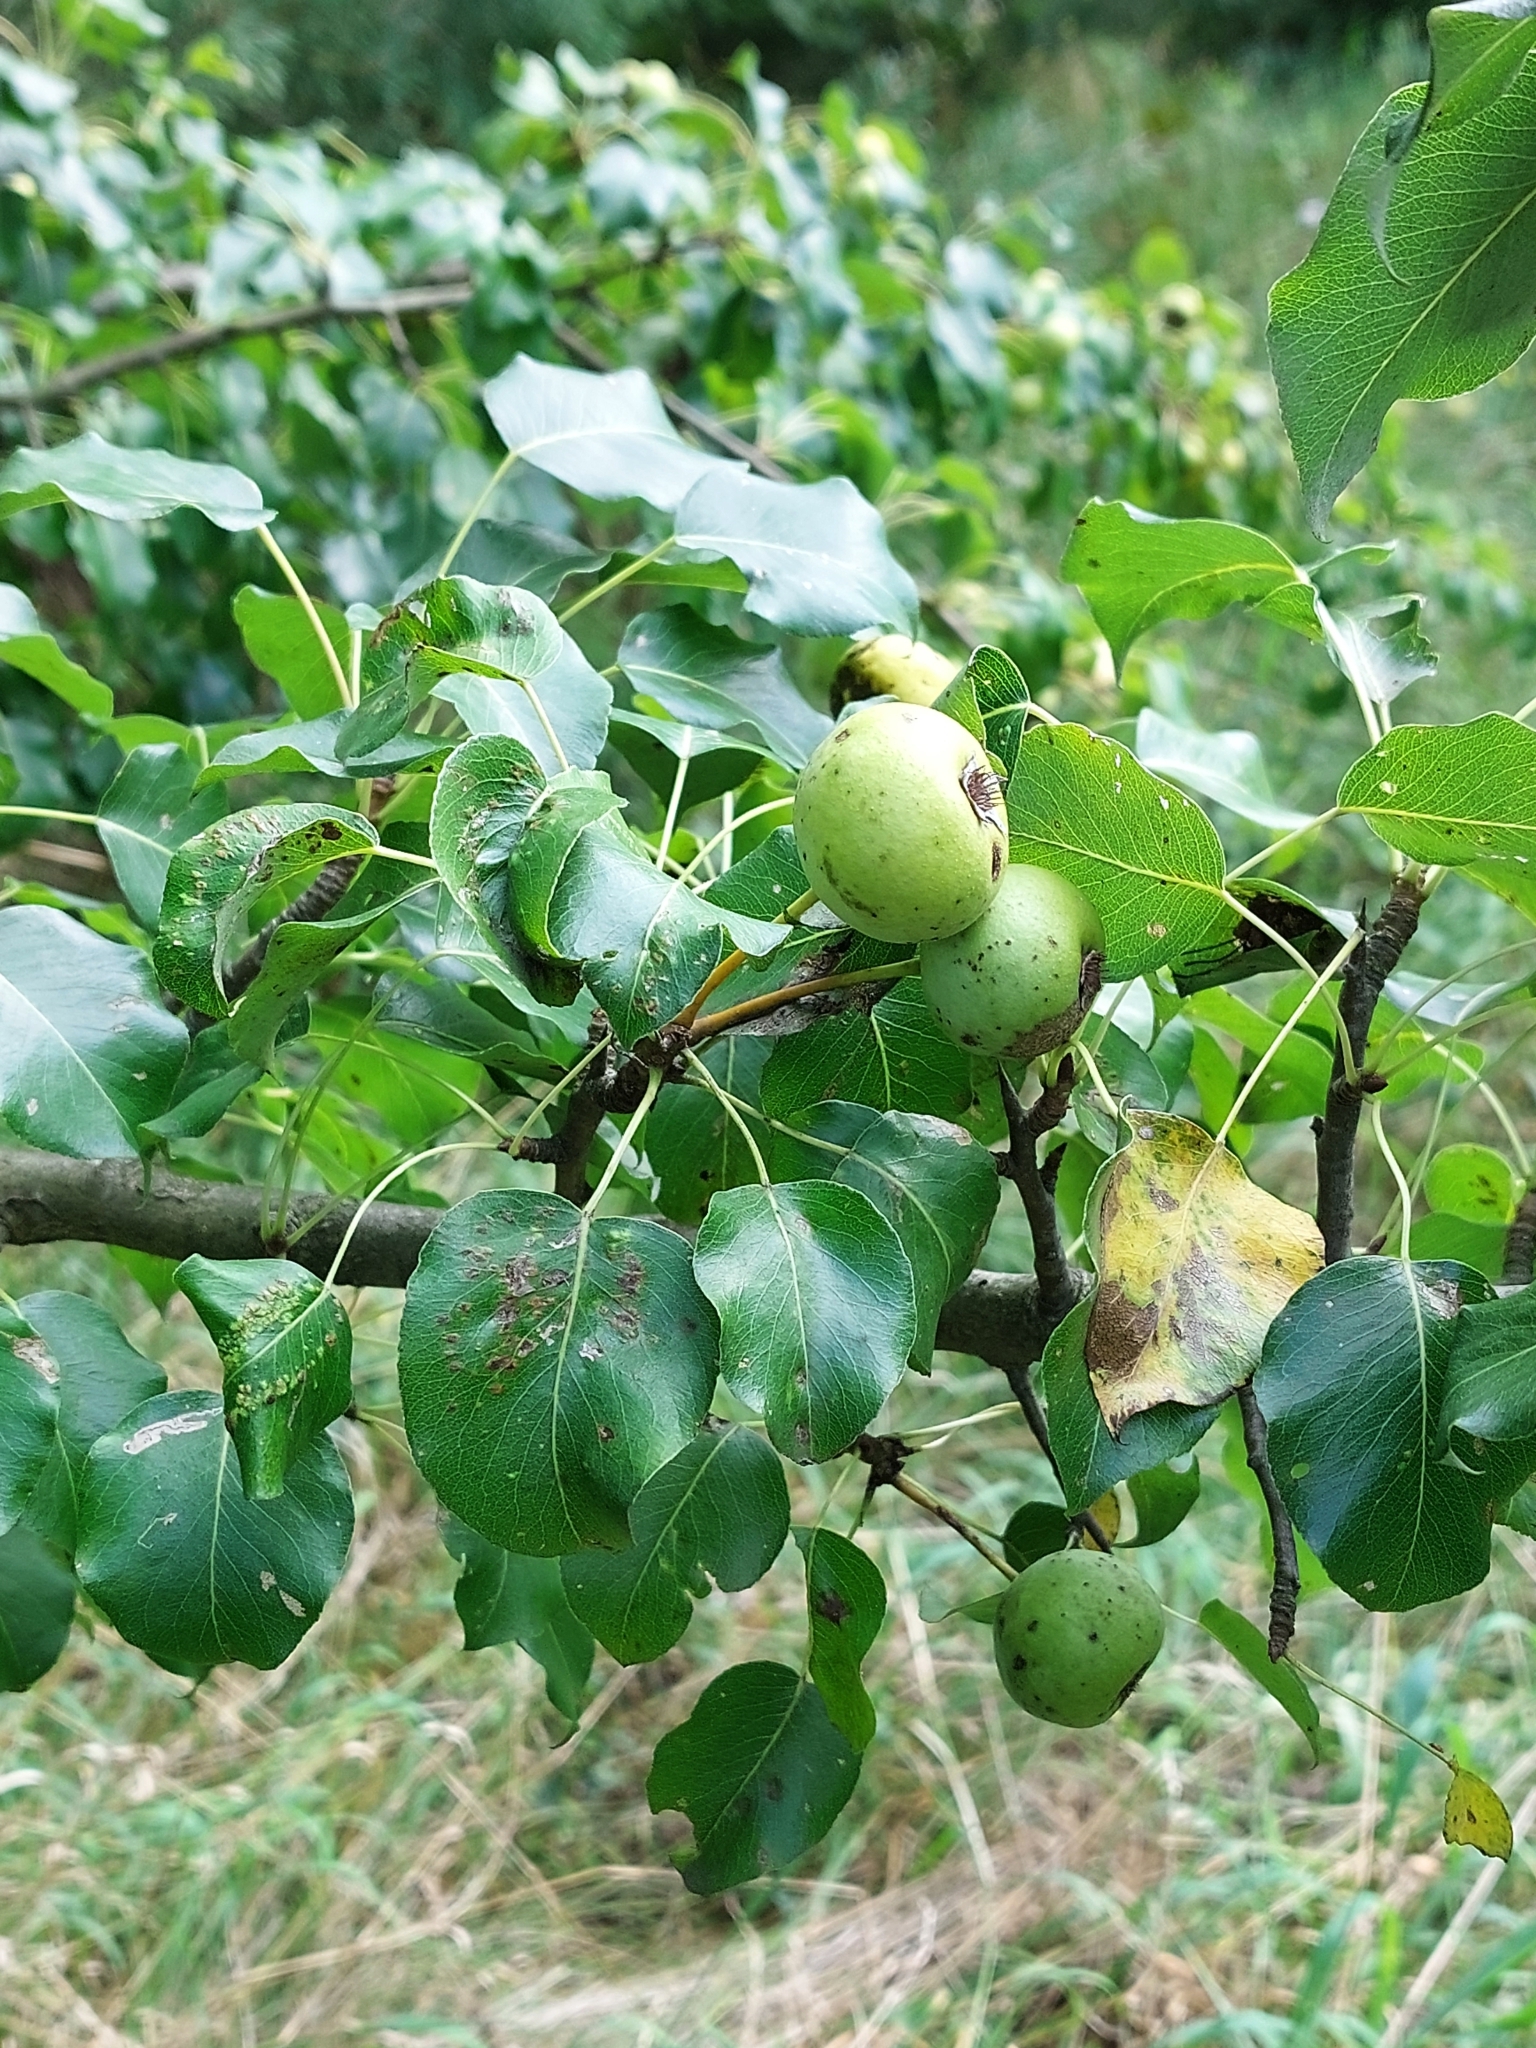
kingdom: Plantae
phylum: Tracheophyta
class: Magnoliopsida
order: Rosales
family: Rosaceae
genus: Pyrus
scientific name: Pyrus communis
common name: Pear
